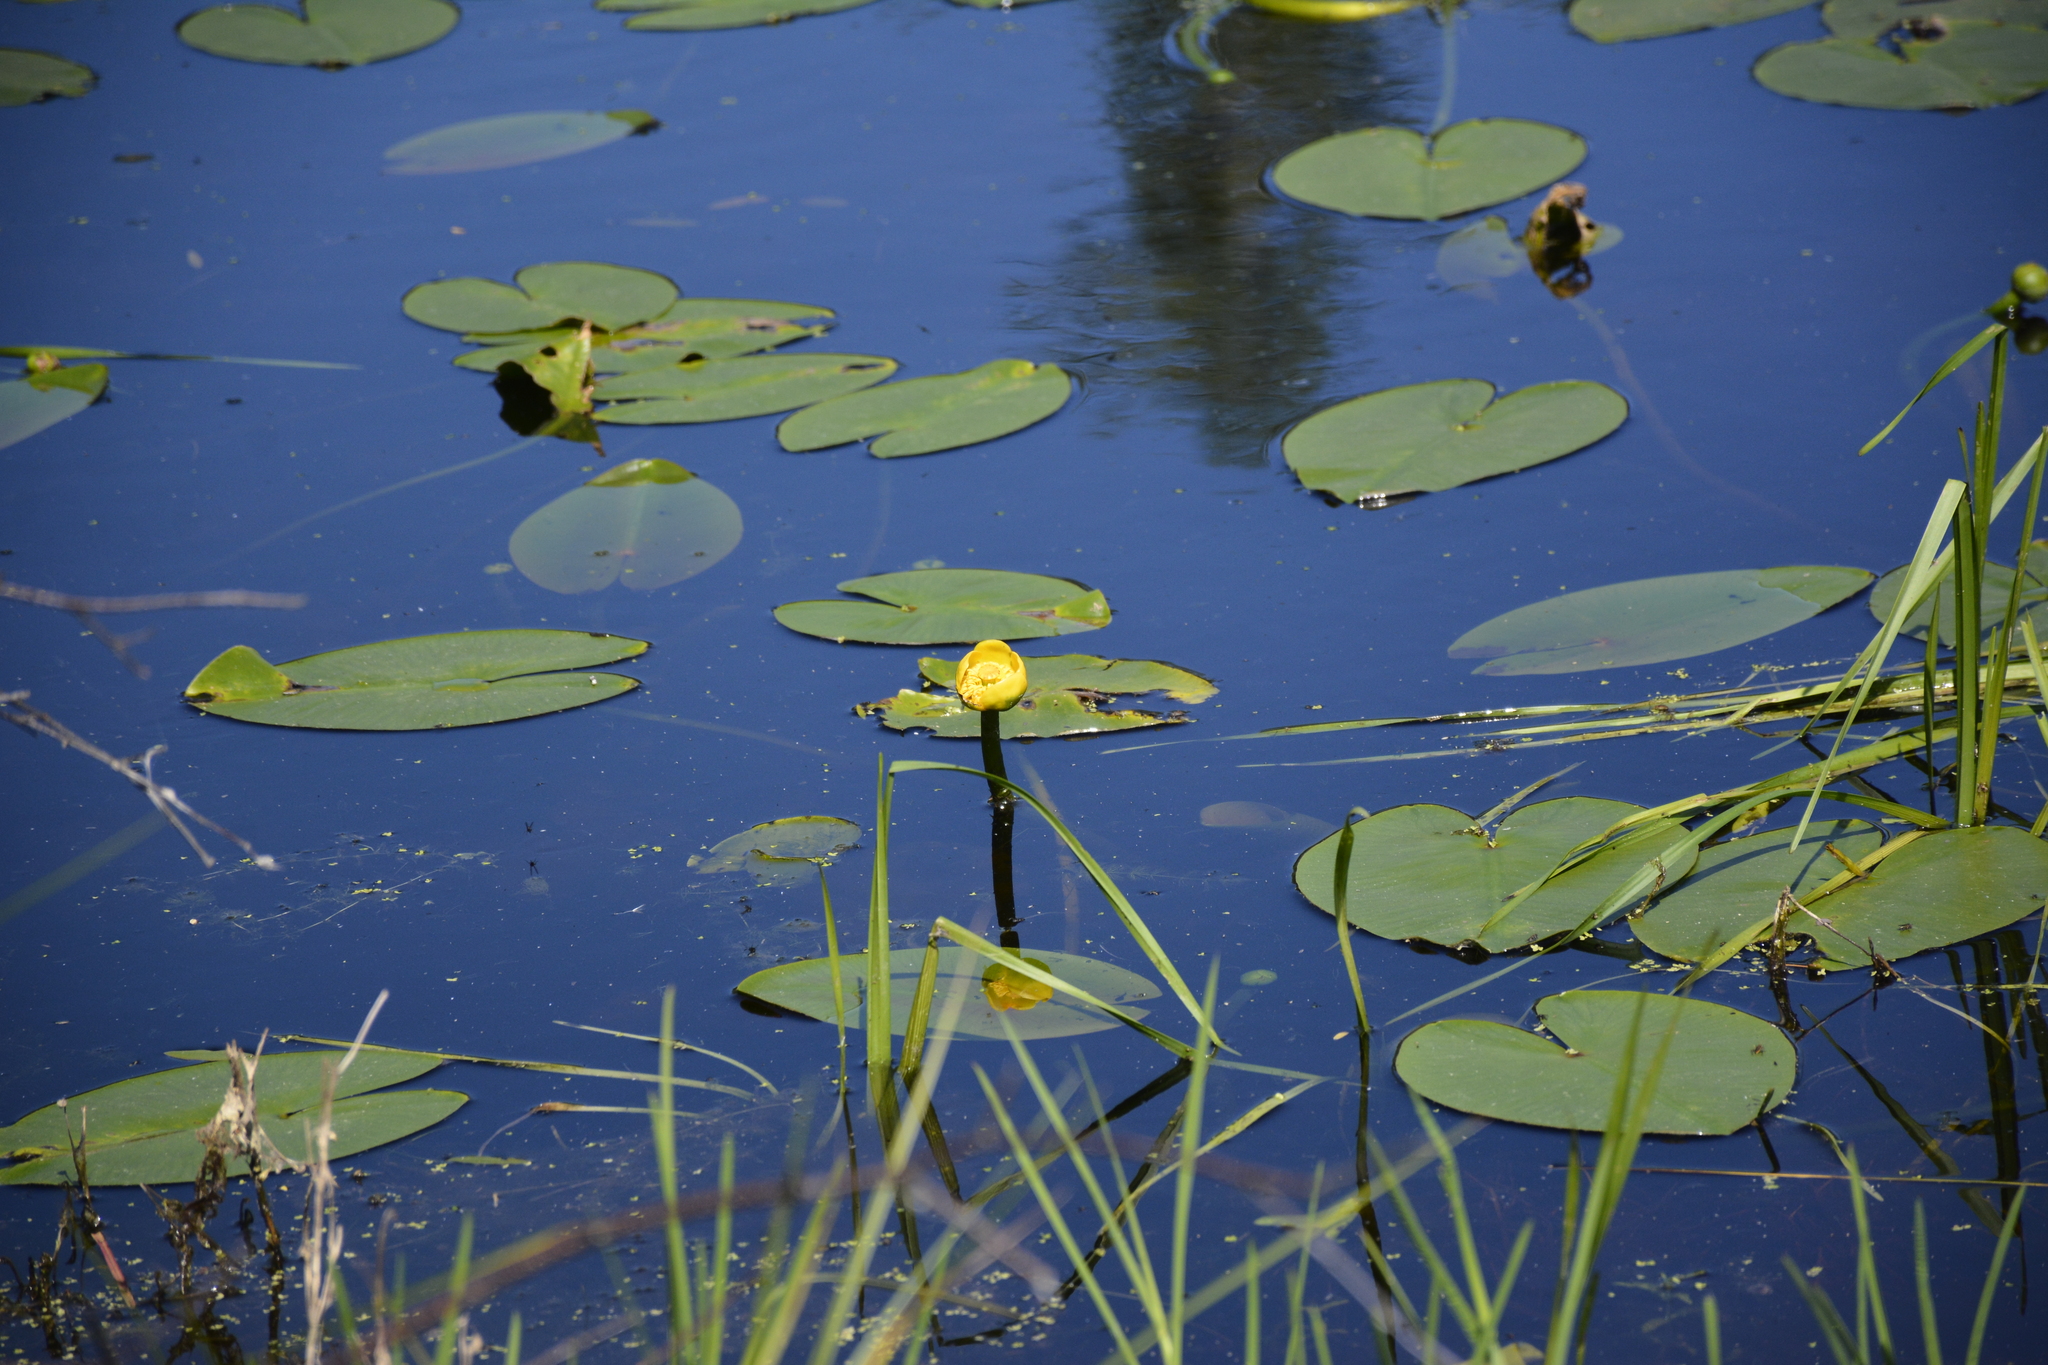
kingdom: Plantae
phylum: Tracheophyta
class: Magnoliopsida
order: Nymphaeales
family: Nymphaeaceae
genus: Nuphar
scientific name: Nuphar lutea
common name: Yellow water-lily
